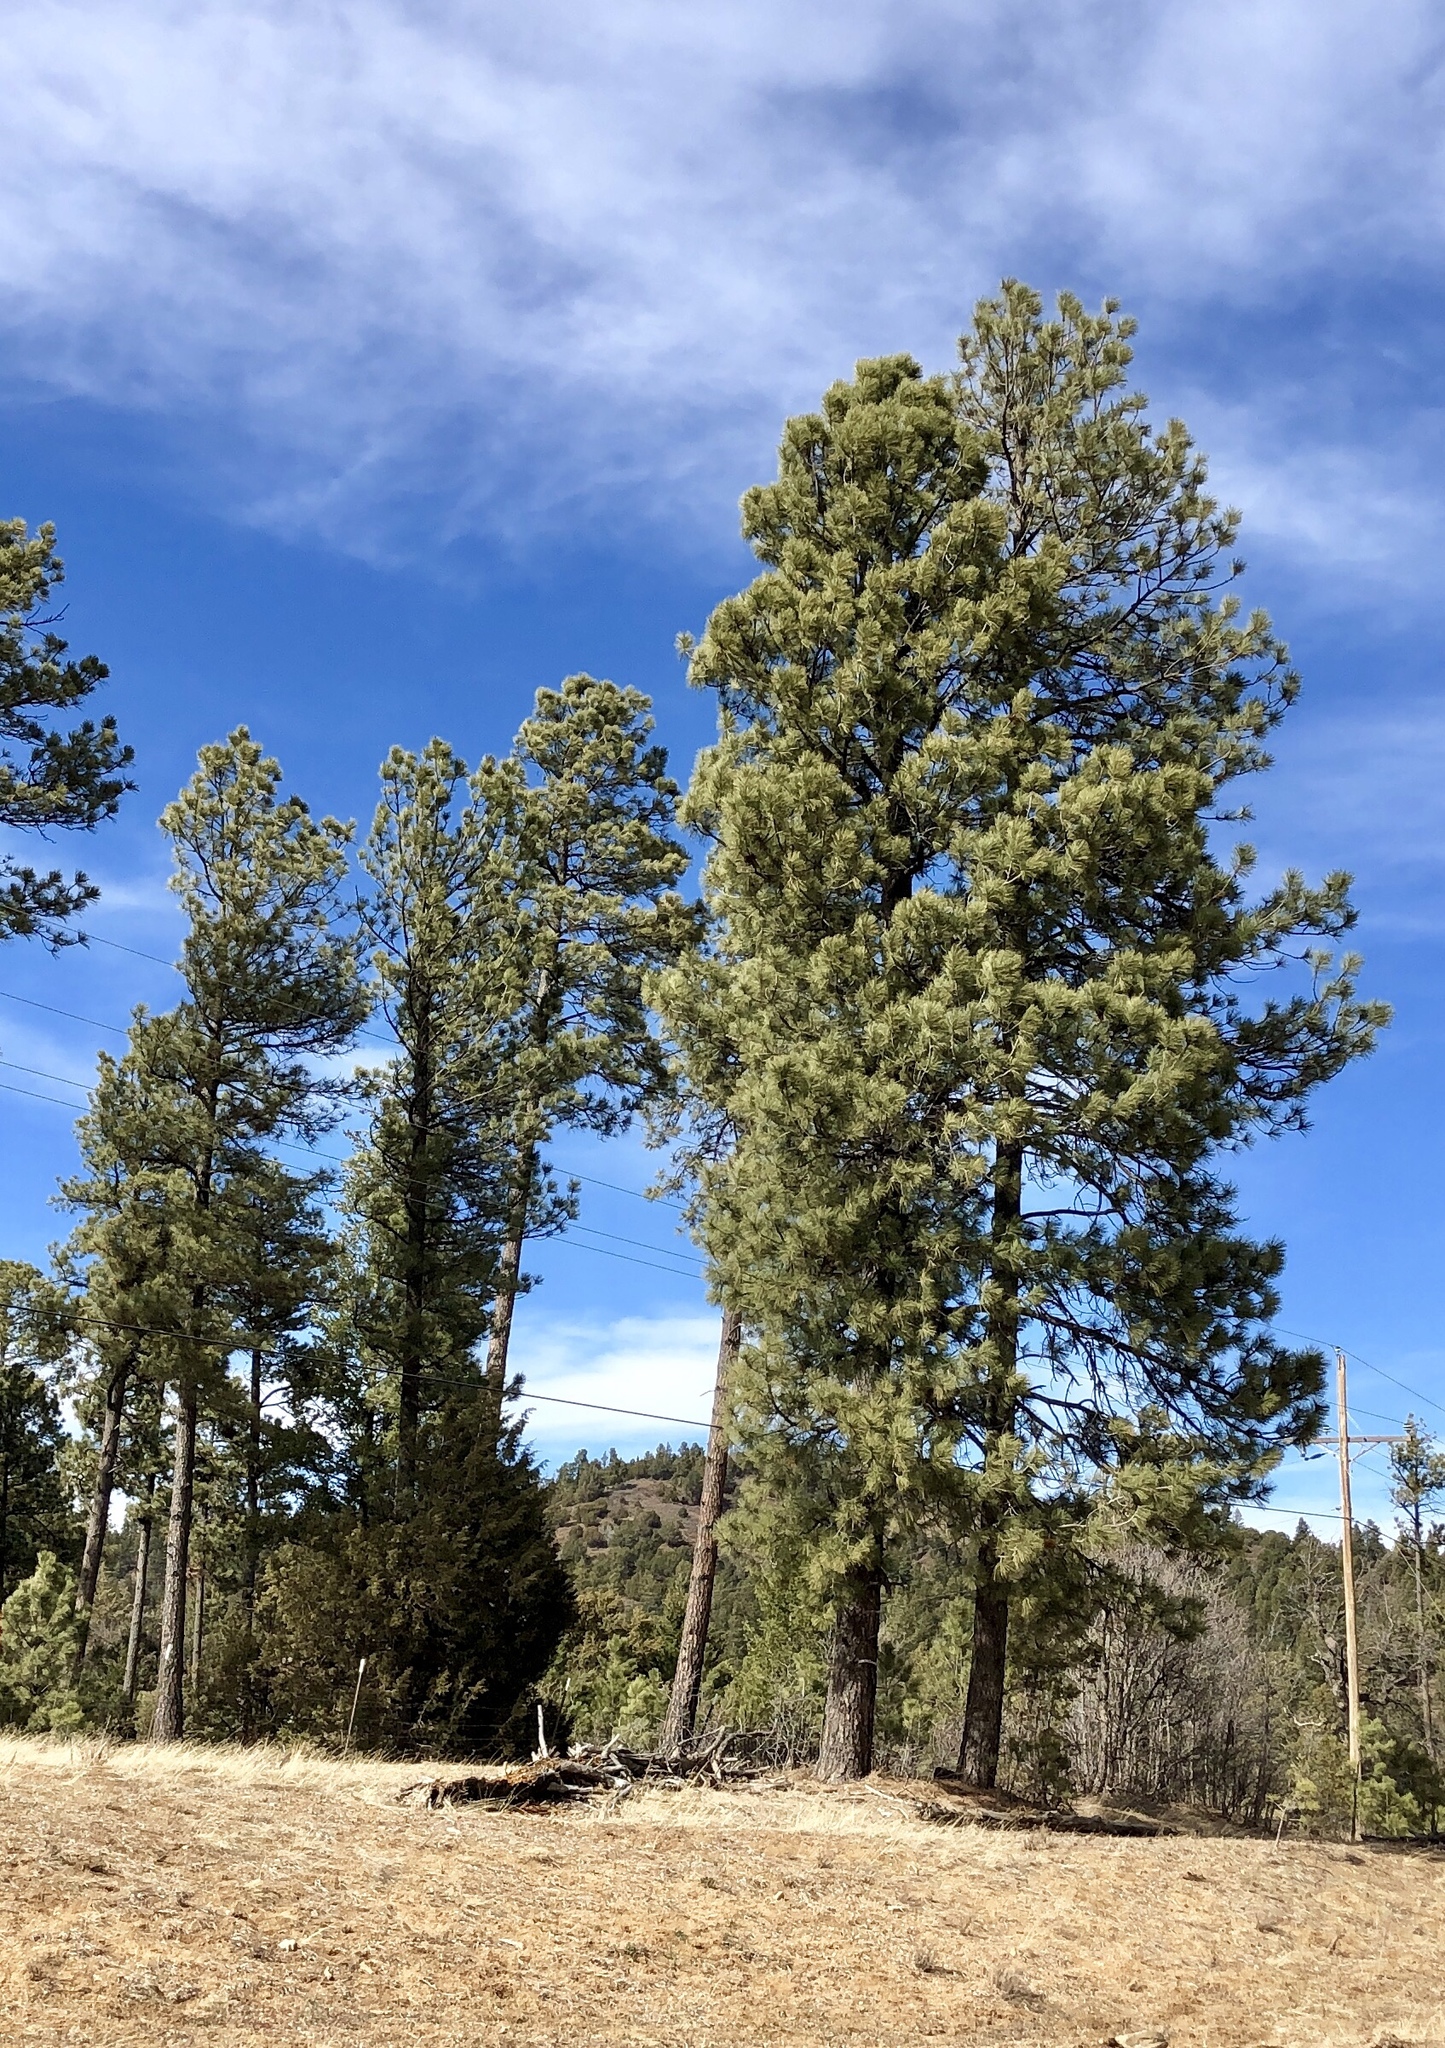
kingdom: Plantae
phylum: Tracheophyta
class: Pinopsida
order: Pinales
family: Pinaceae
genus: Pinus
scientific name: Pinus ponderosa
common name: Western yellow-pine
